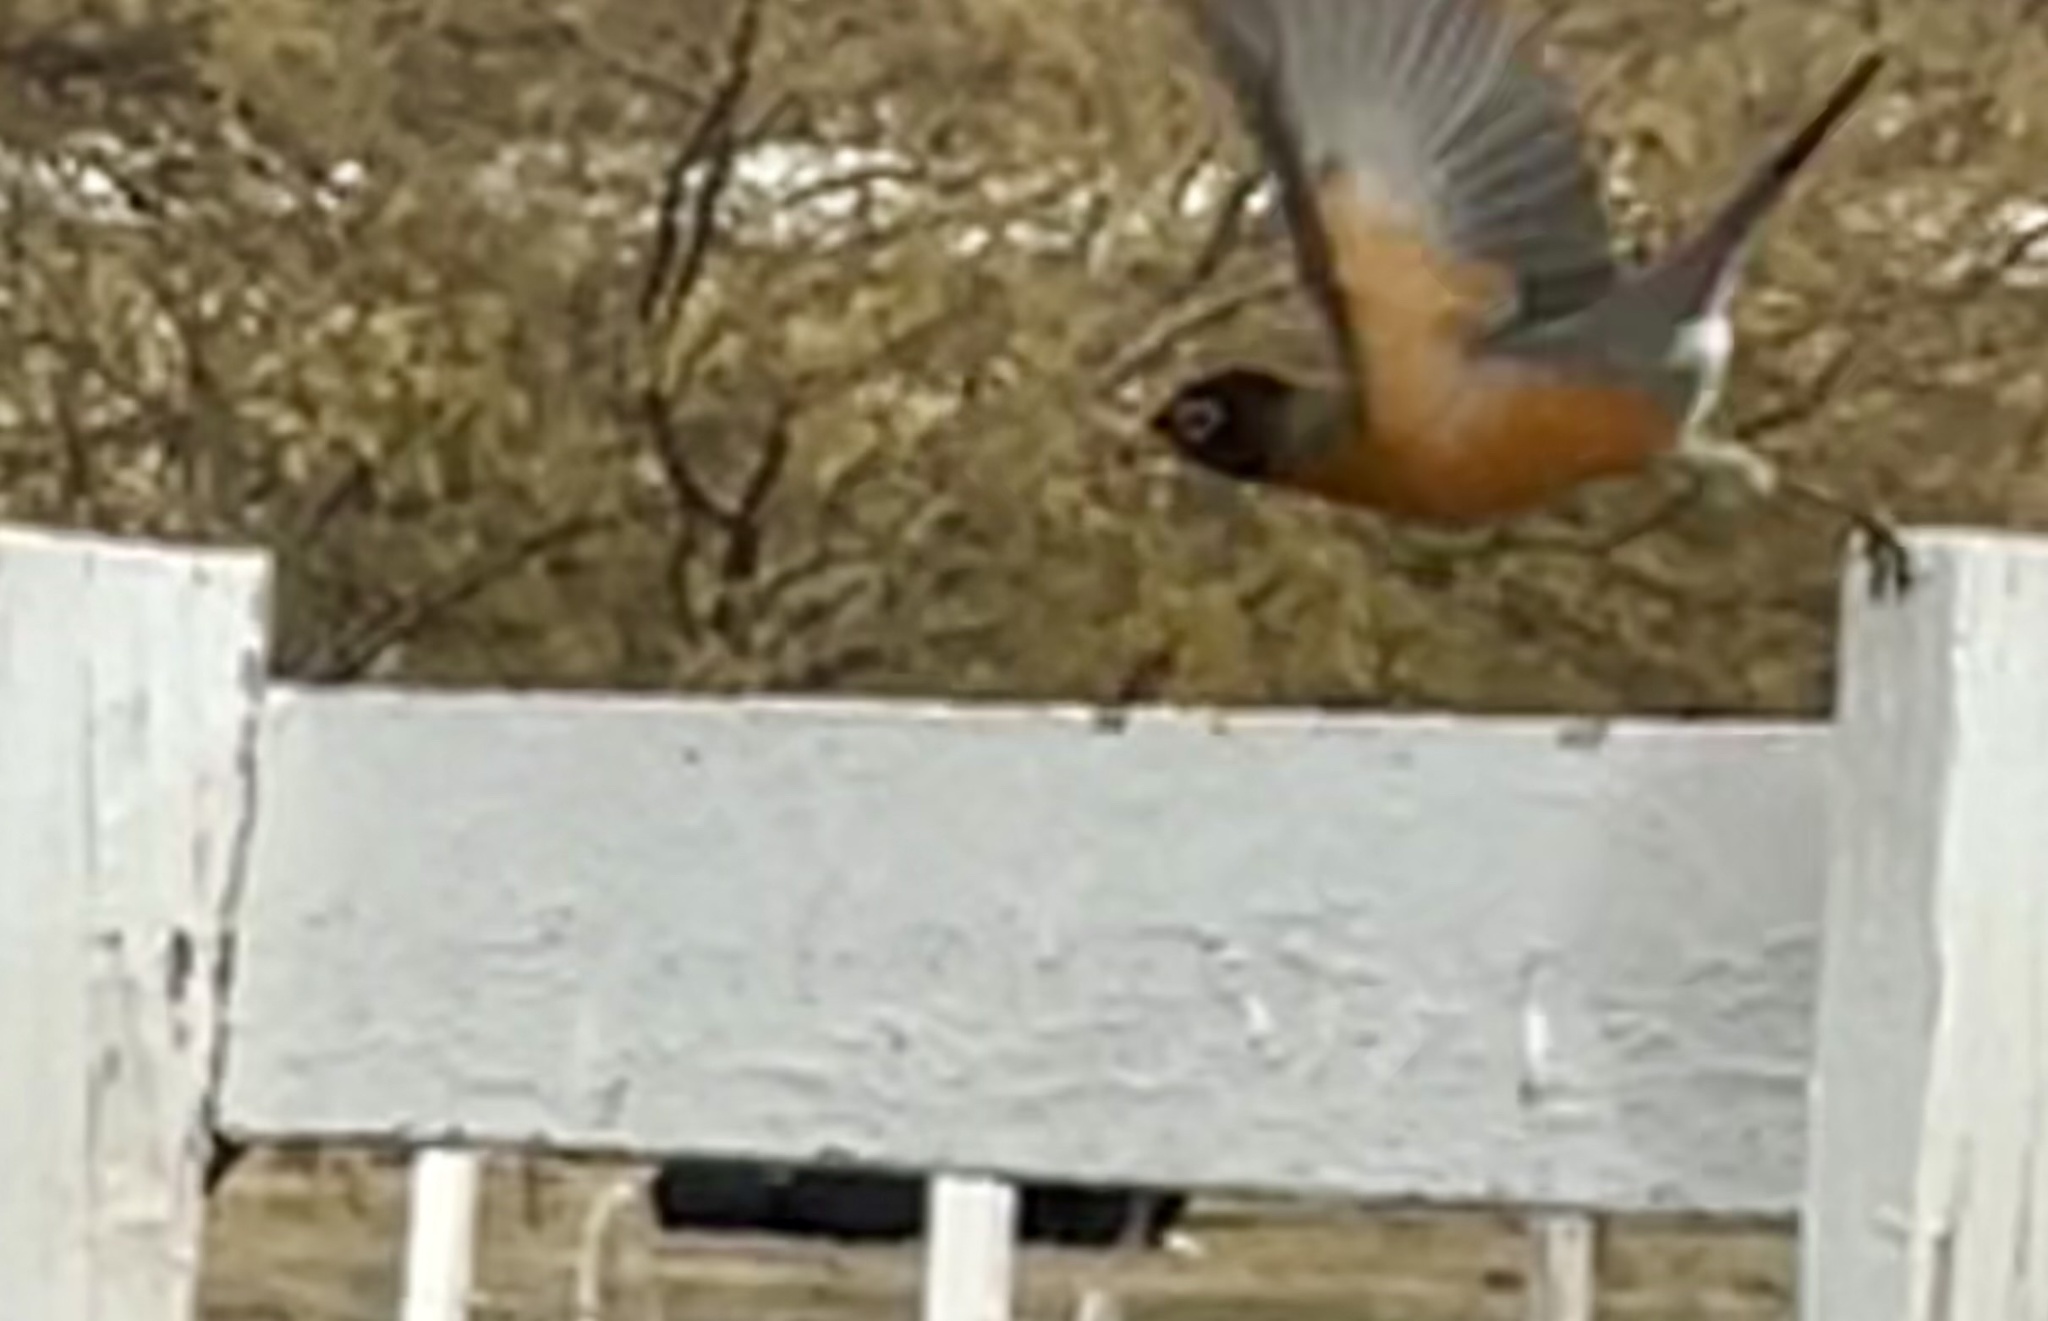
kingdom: Animalia
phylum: Chordata
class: Aves
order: Passeriformes
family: Turdidae
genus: Turdus
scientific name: Turdus migratorius
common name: American robin
